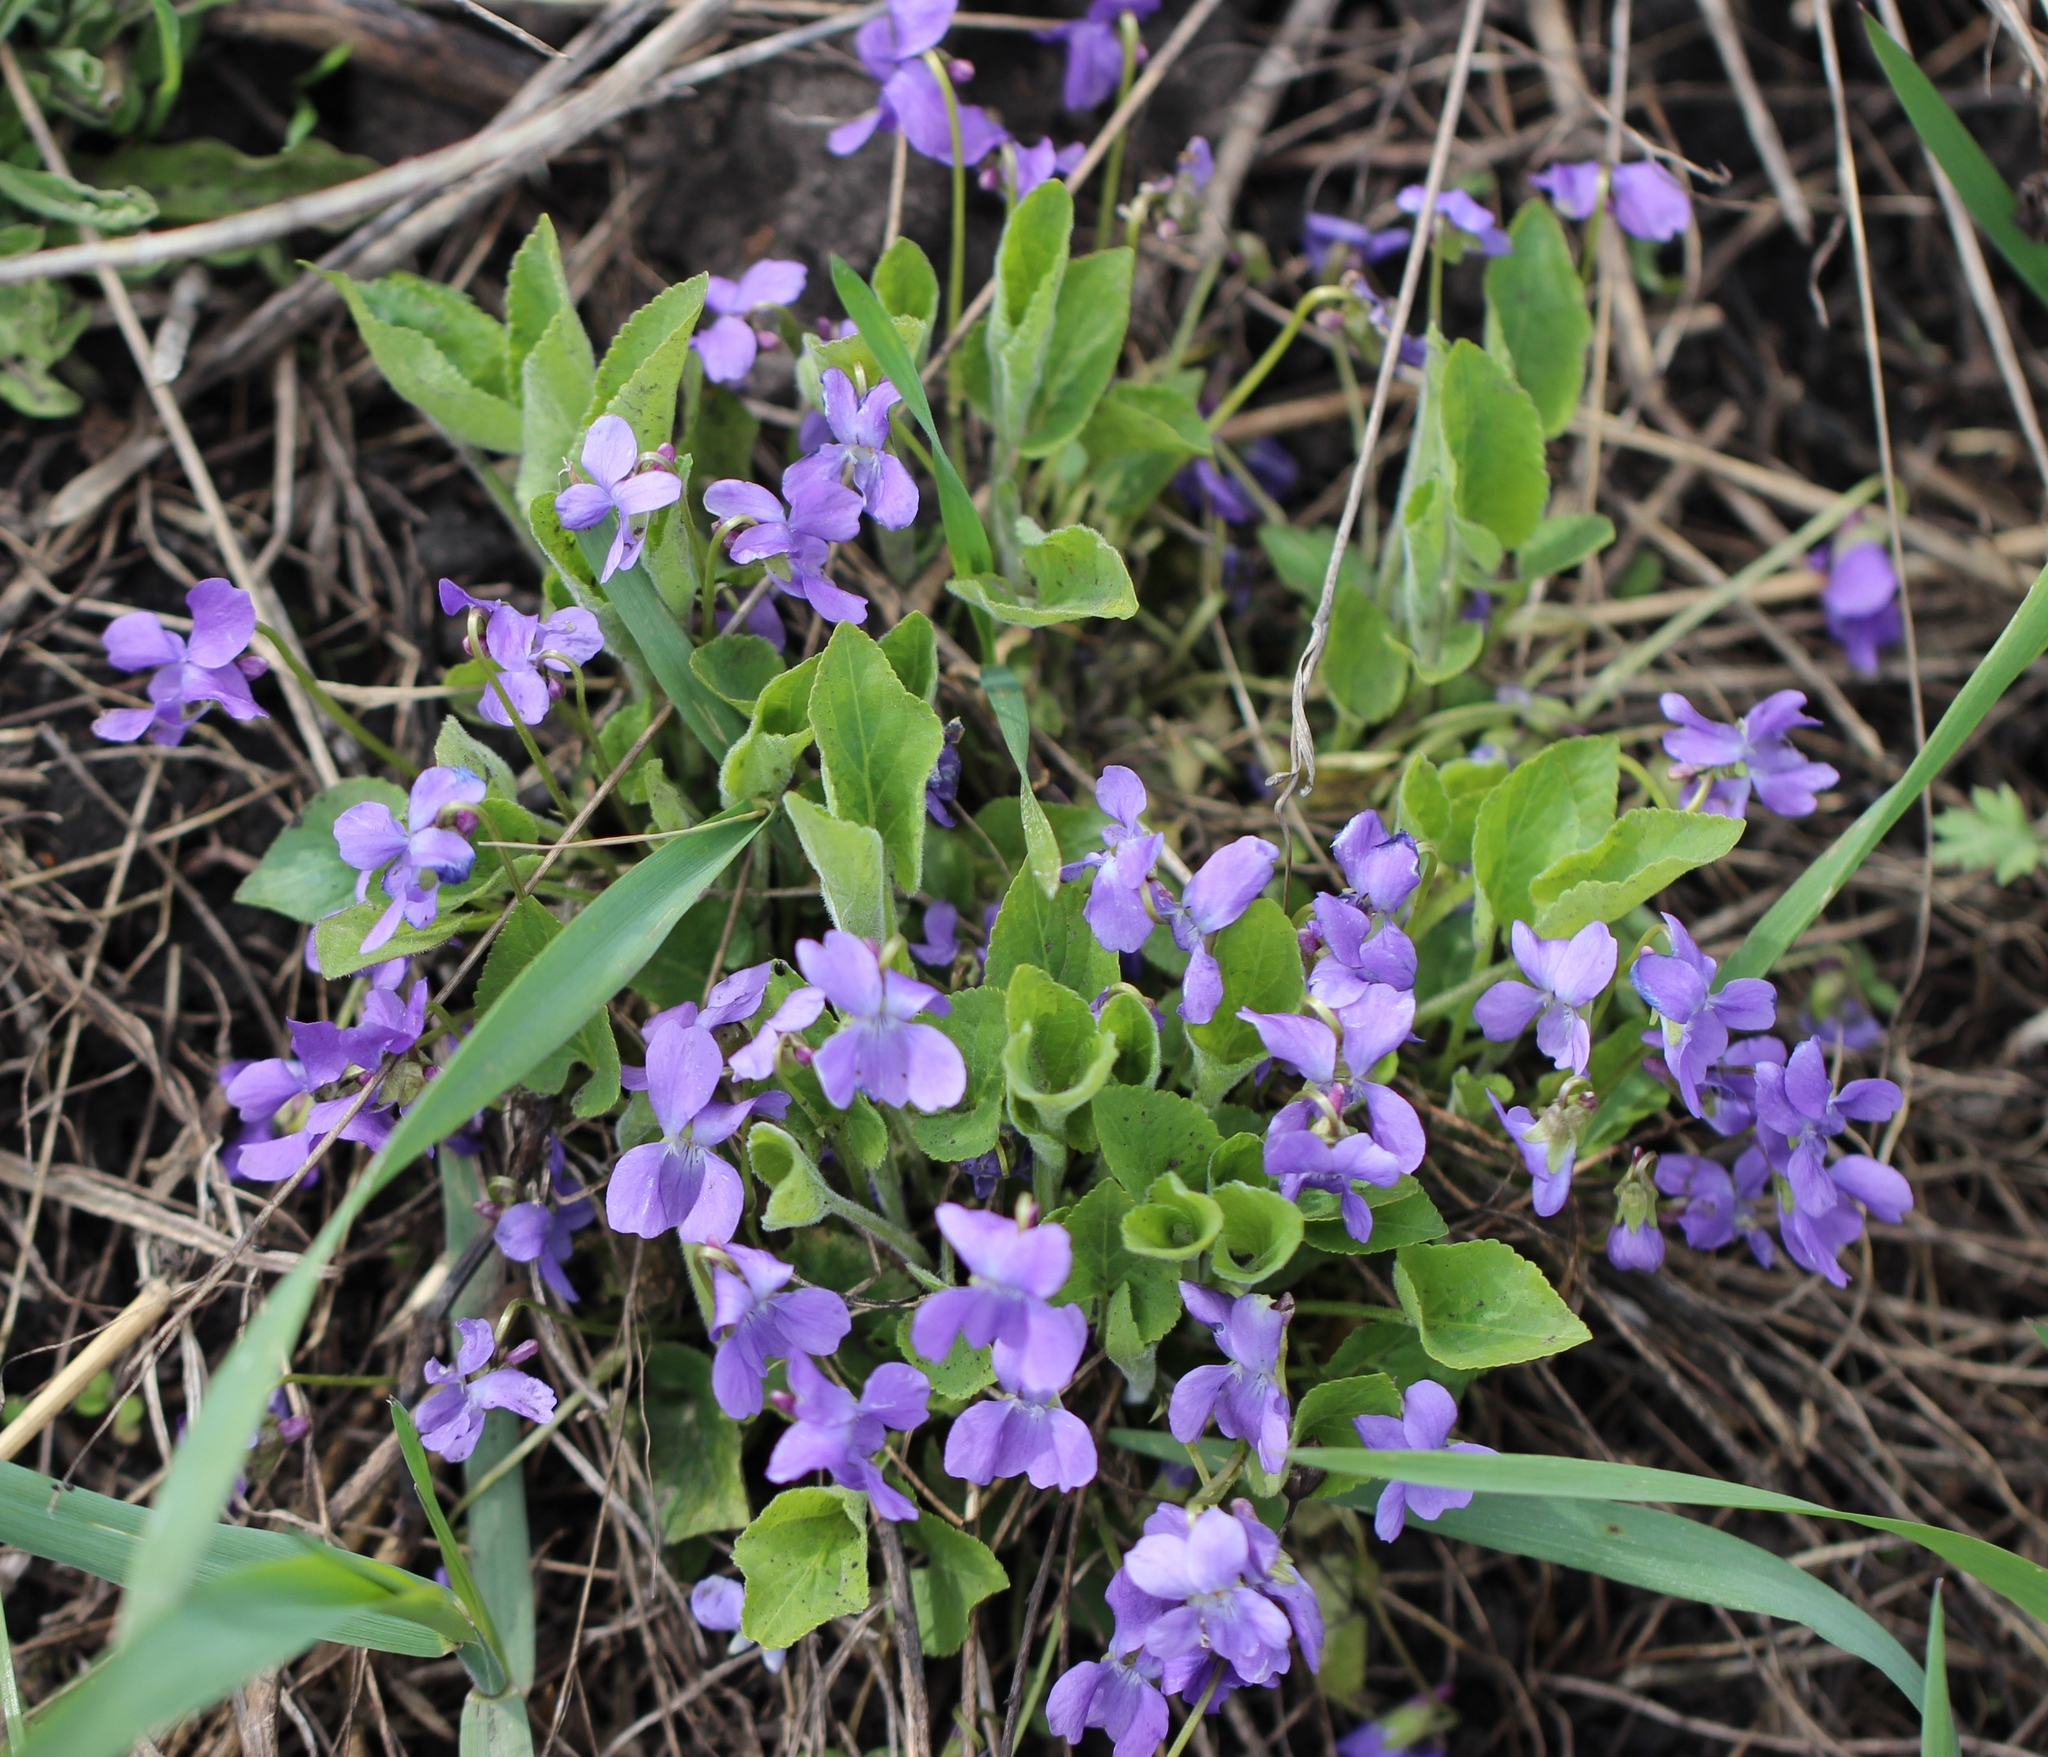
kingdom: Plantae
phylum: Tracheophyta
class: Magnoliopsida
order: Malpighiales
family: Violaceae
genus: Viola
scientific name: Viola hirta
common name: Hairy violet
